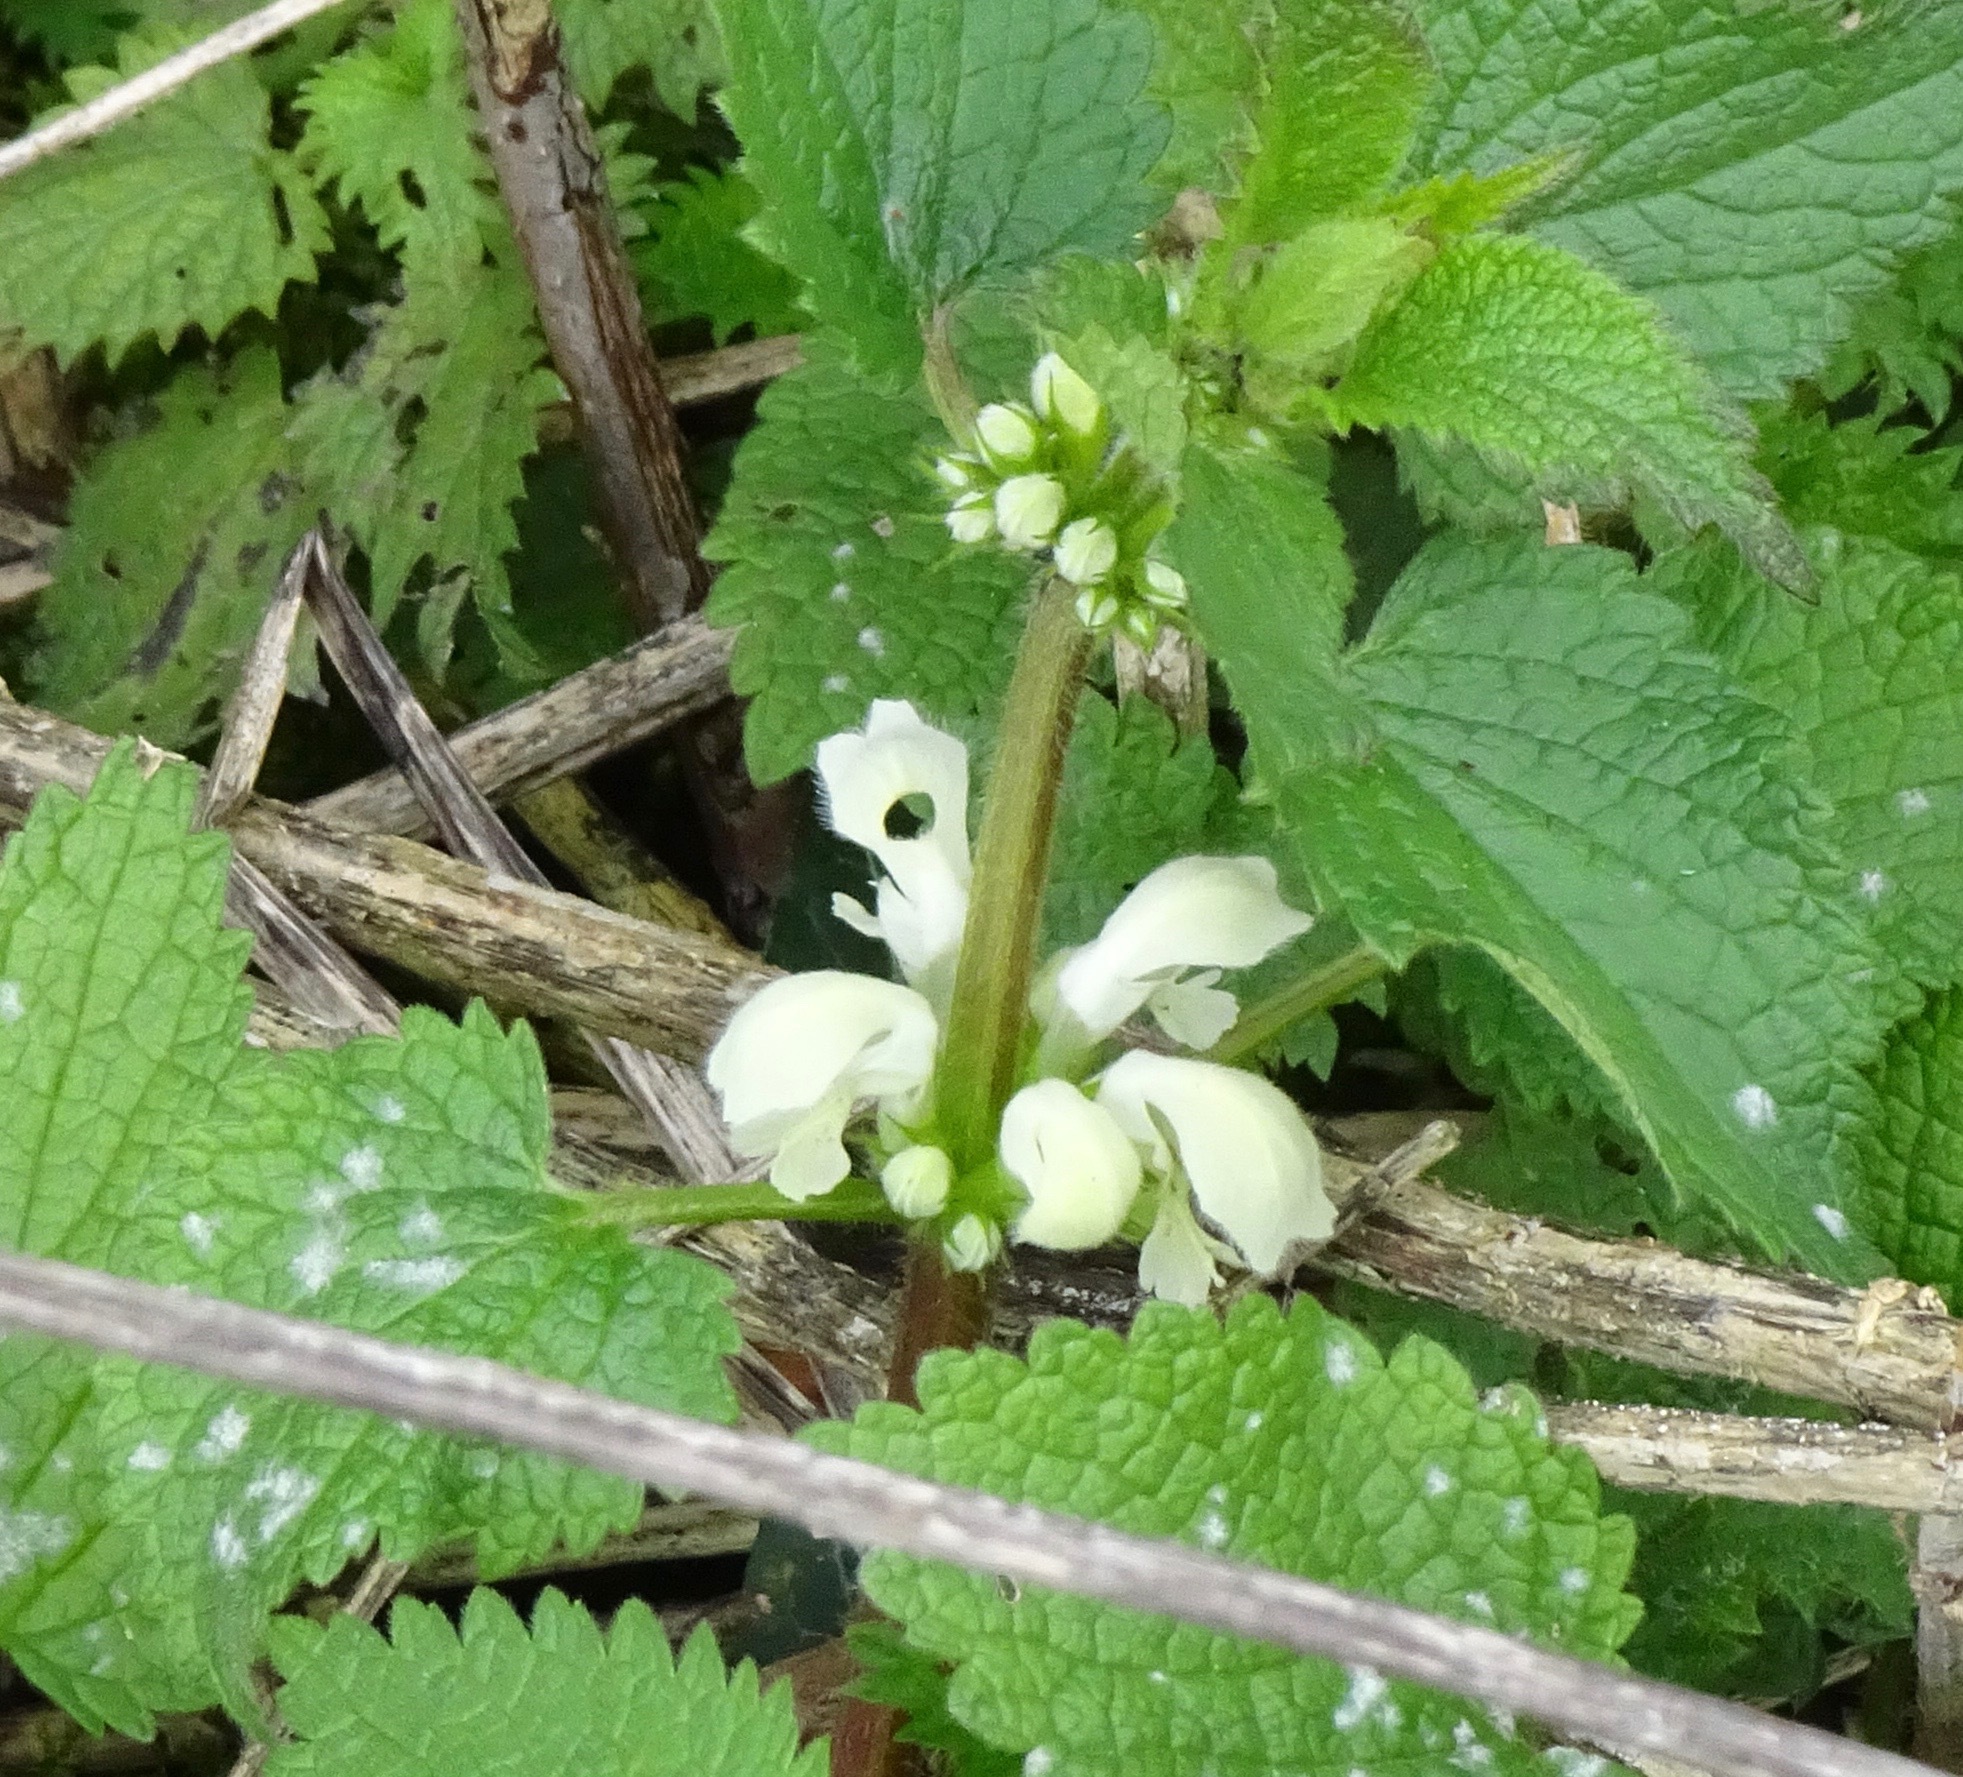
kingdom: Plantae
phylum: Tracheophyta
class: Magnoliopsida
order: Lamiales
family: Lamiaceae
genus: Lamium
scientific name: Lamium album
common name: White dead-nettle
